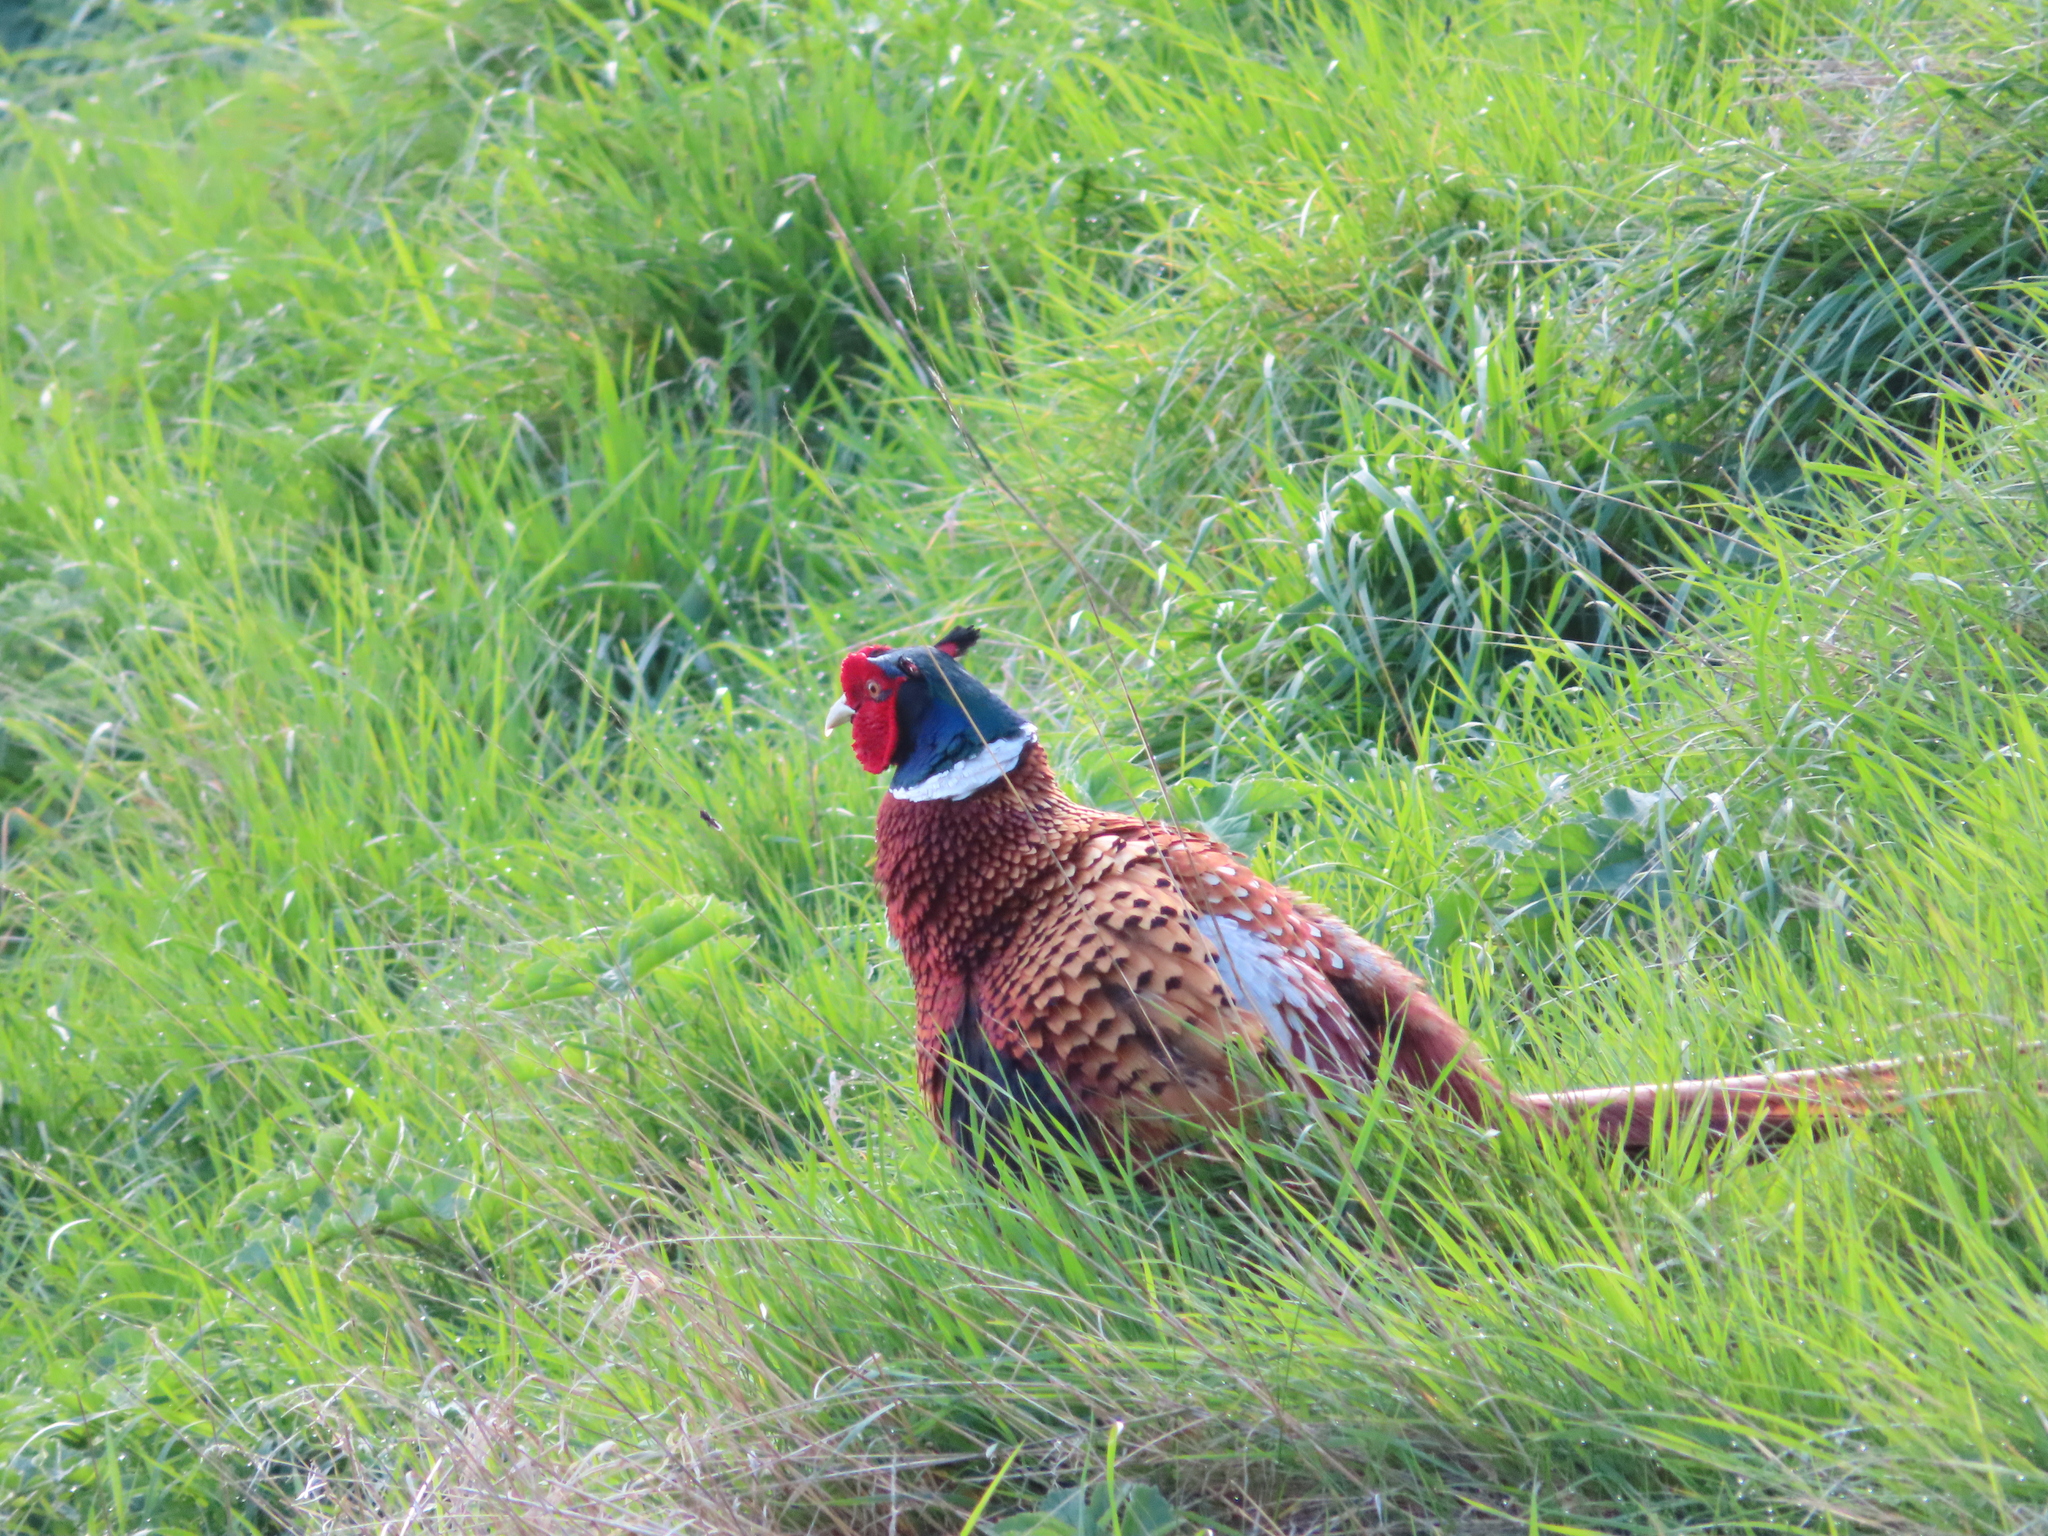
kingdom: Animalia
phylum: Chordata
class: Aves
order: Galliformes
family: Phasianidae
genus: Phasianus
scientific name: Phasianus colchicus
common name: Common pheasant
